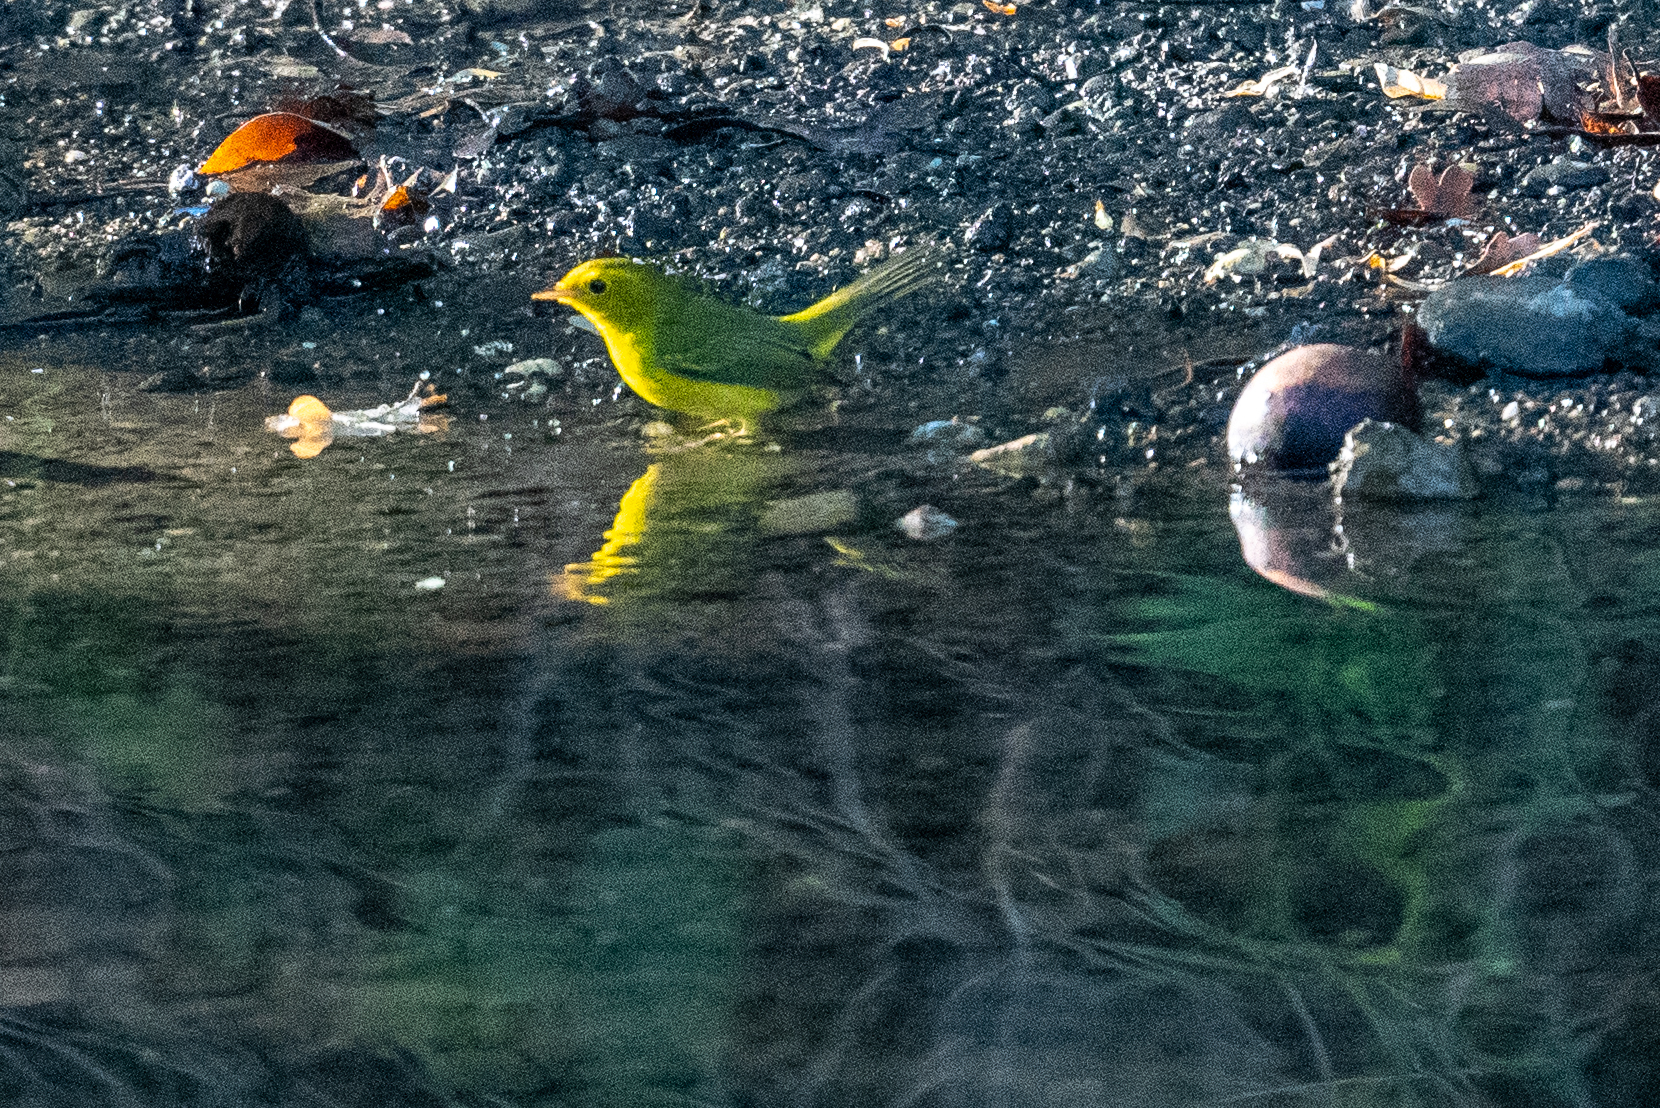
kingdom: Animalia
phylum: Chordata
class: Aves
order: Passeriformes
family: Parulidae
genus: Cardellina
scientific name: Cardellina pusilla
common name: Wilson's warbler
